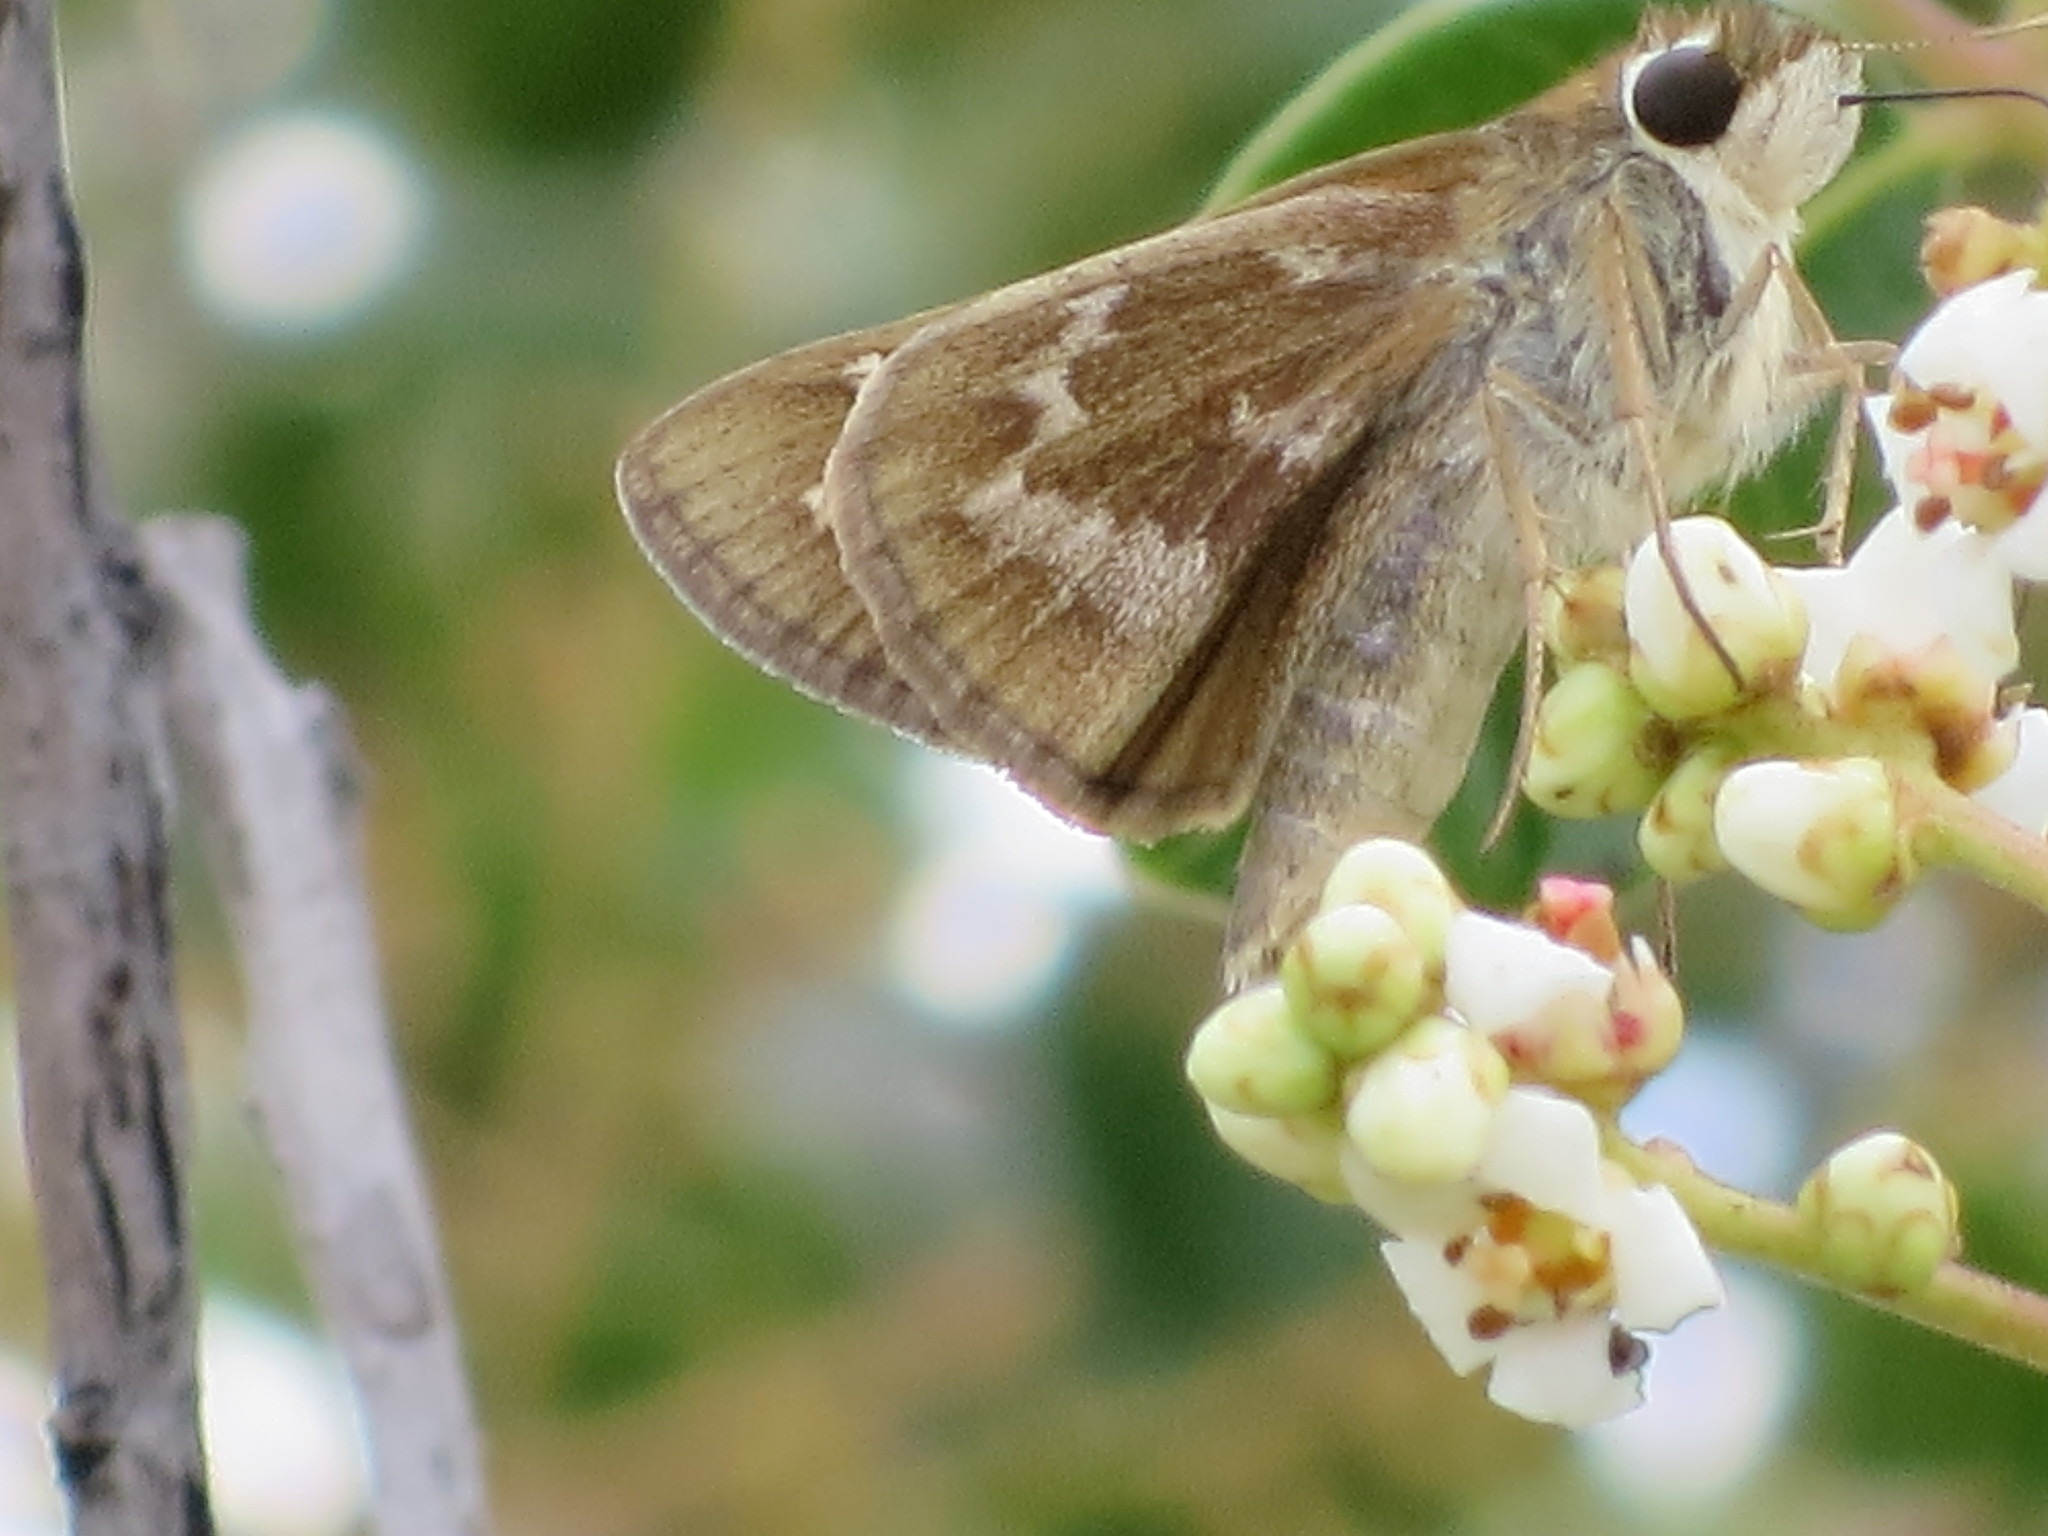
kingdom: Animalia
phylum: Arthropoda
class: Insecta
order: Lepidoptera
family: Hesperiidae
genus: Atalopedes
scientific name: Atalopedes
